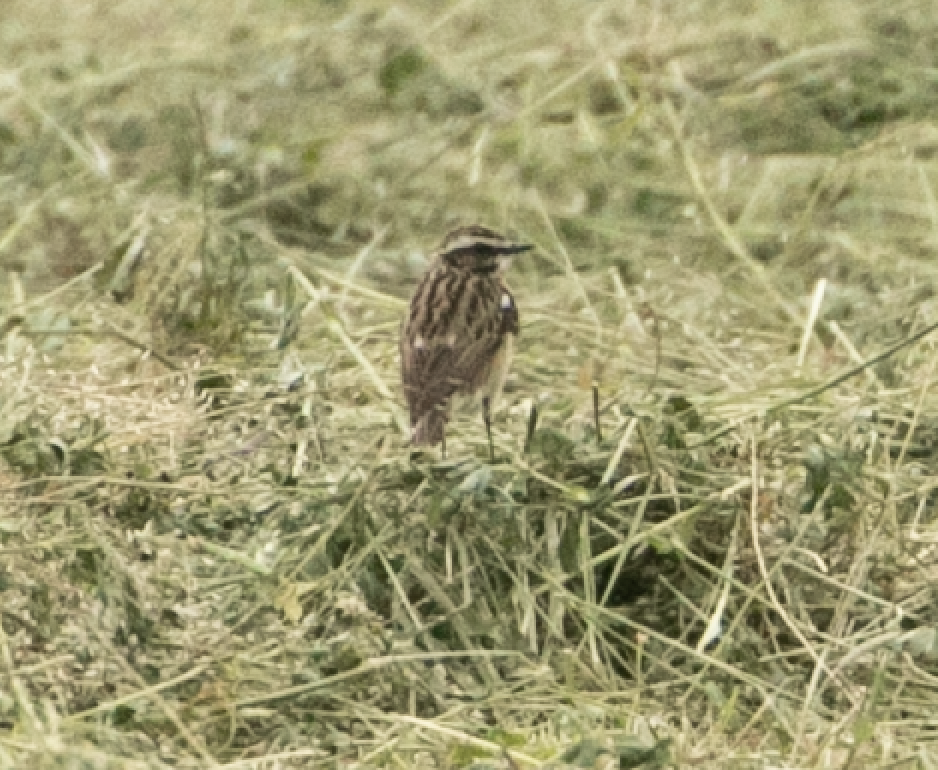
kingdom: Animalia
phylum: Chordata
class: Aves
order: Passeriformes
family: Muscicapidae
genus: Saxicola
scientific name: Saxicola rubetra
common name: Whinchat
